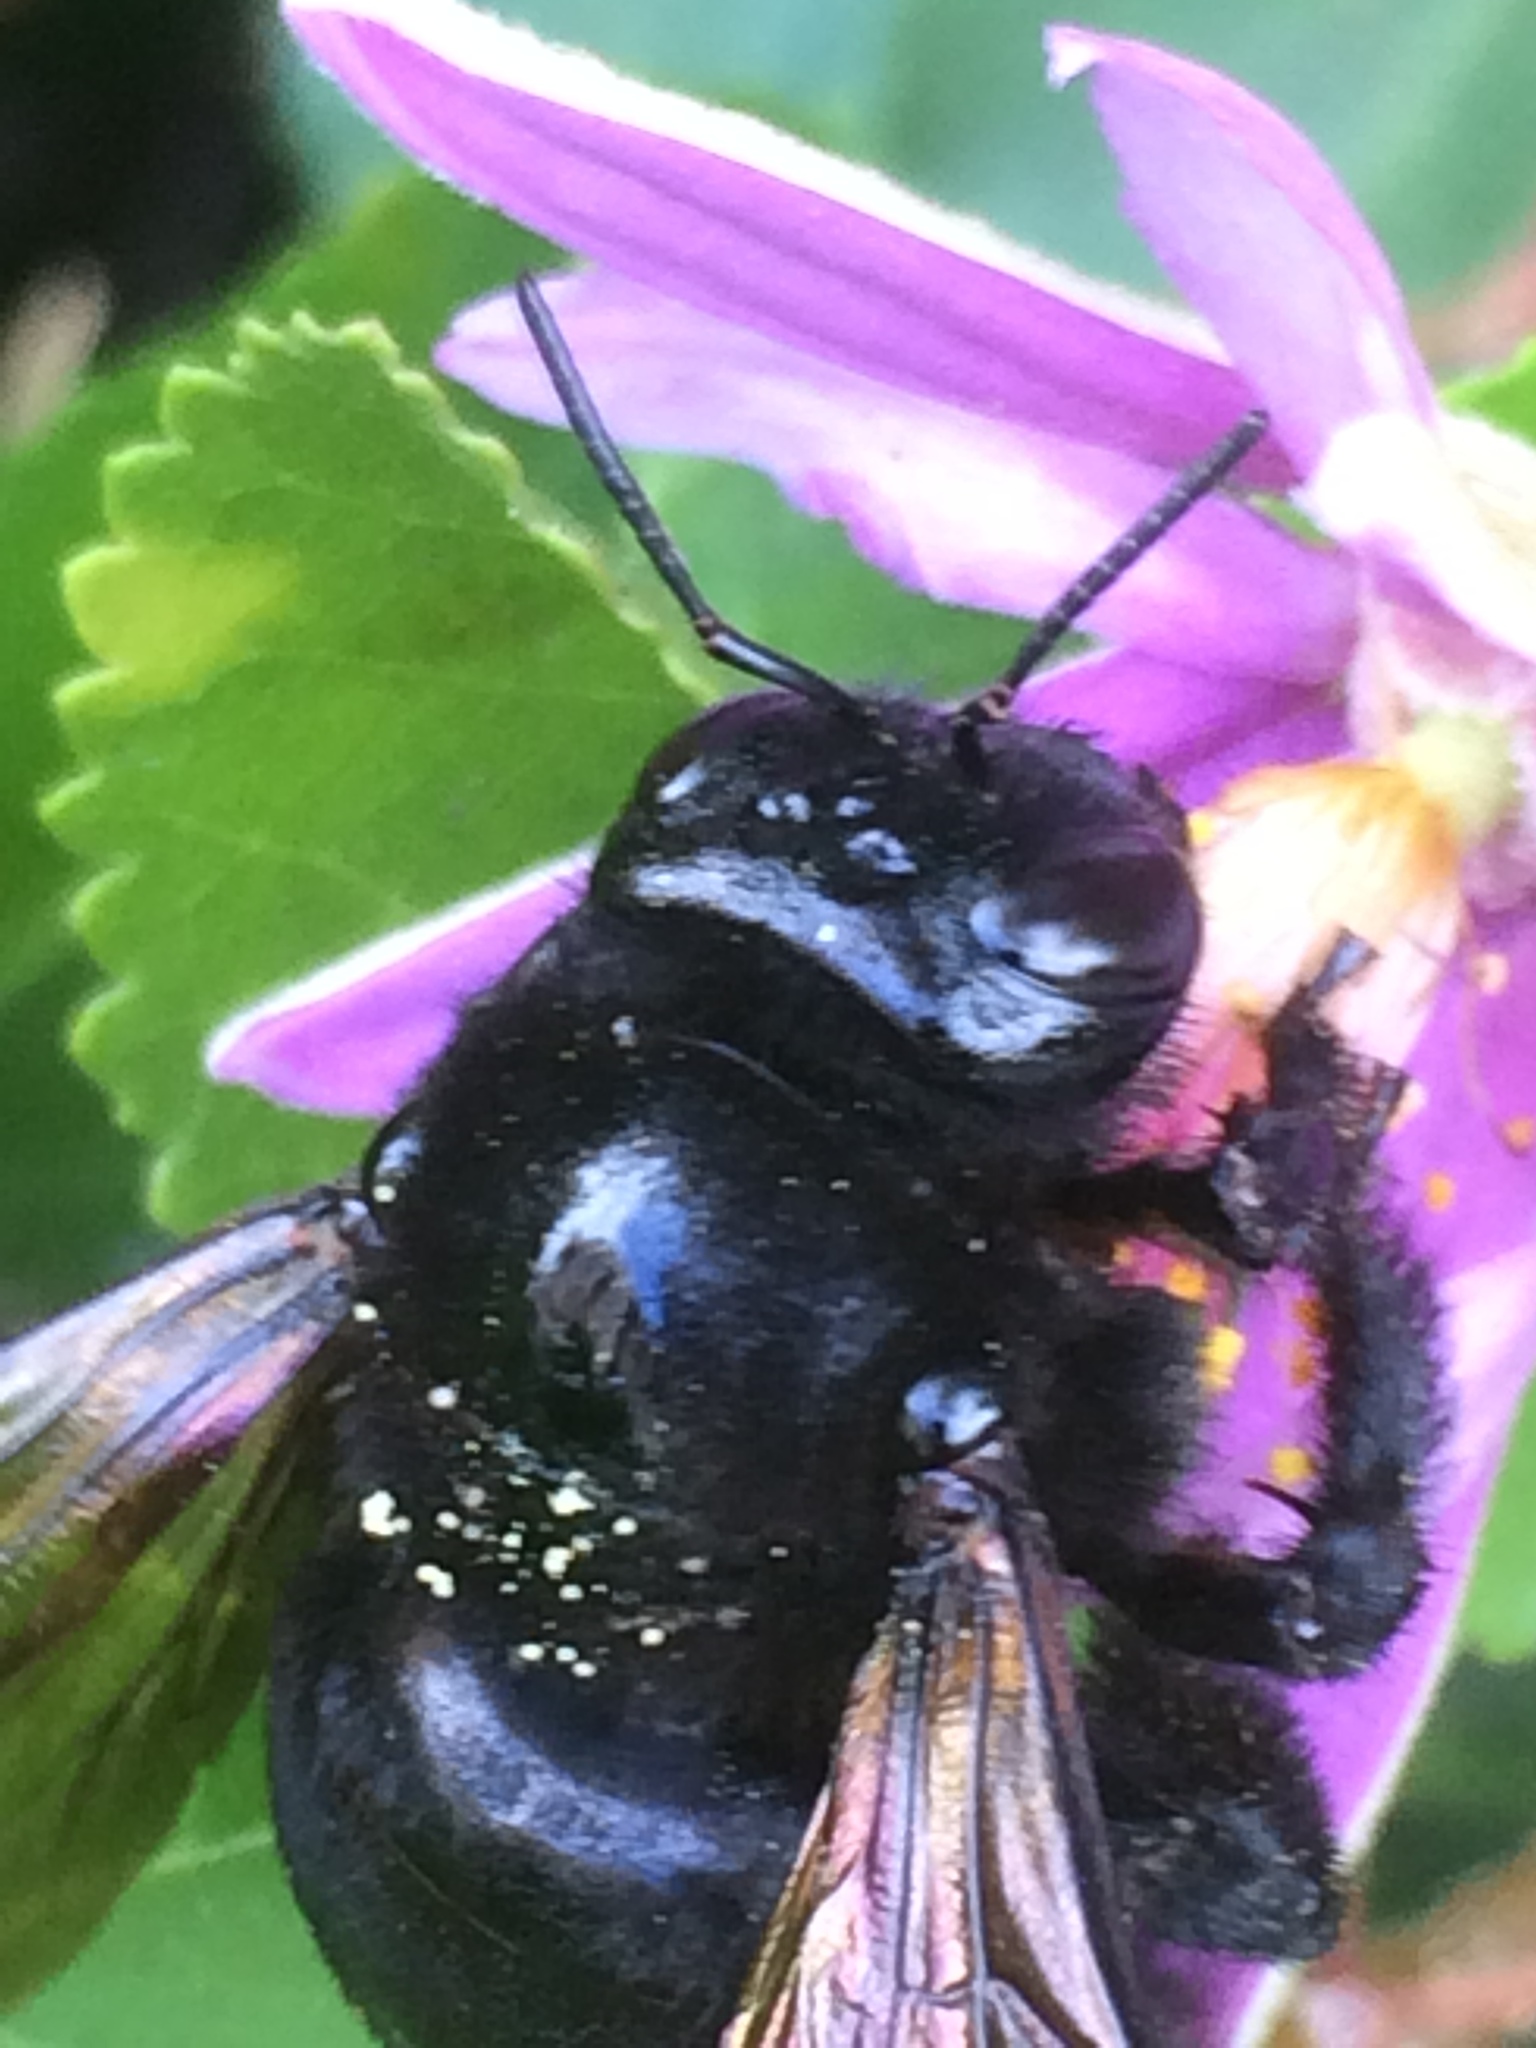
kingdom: Animalia
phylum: Arthropoda
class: Insecta
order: Hymenoptera
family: Apidae
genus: Xylocopa
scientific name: Xylocopa sonorina
